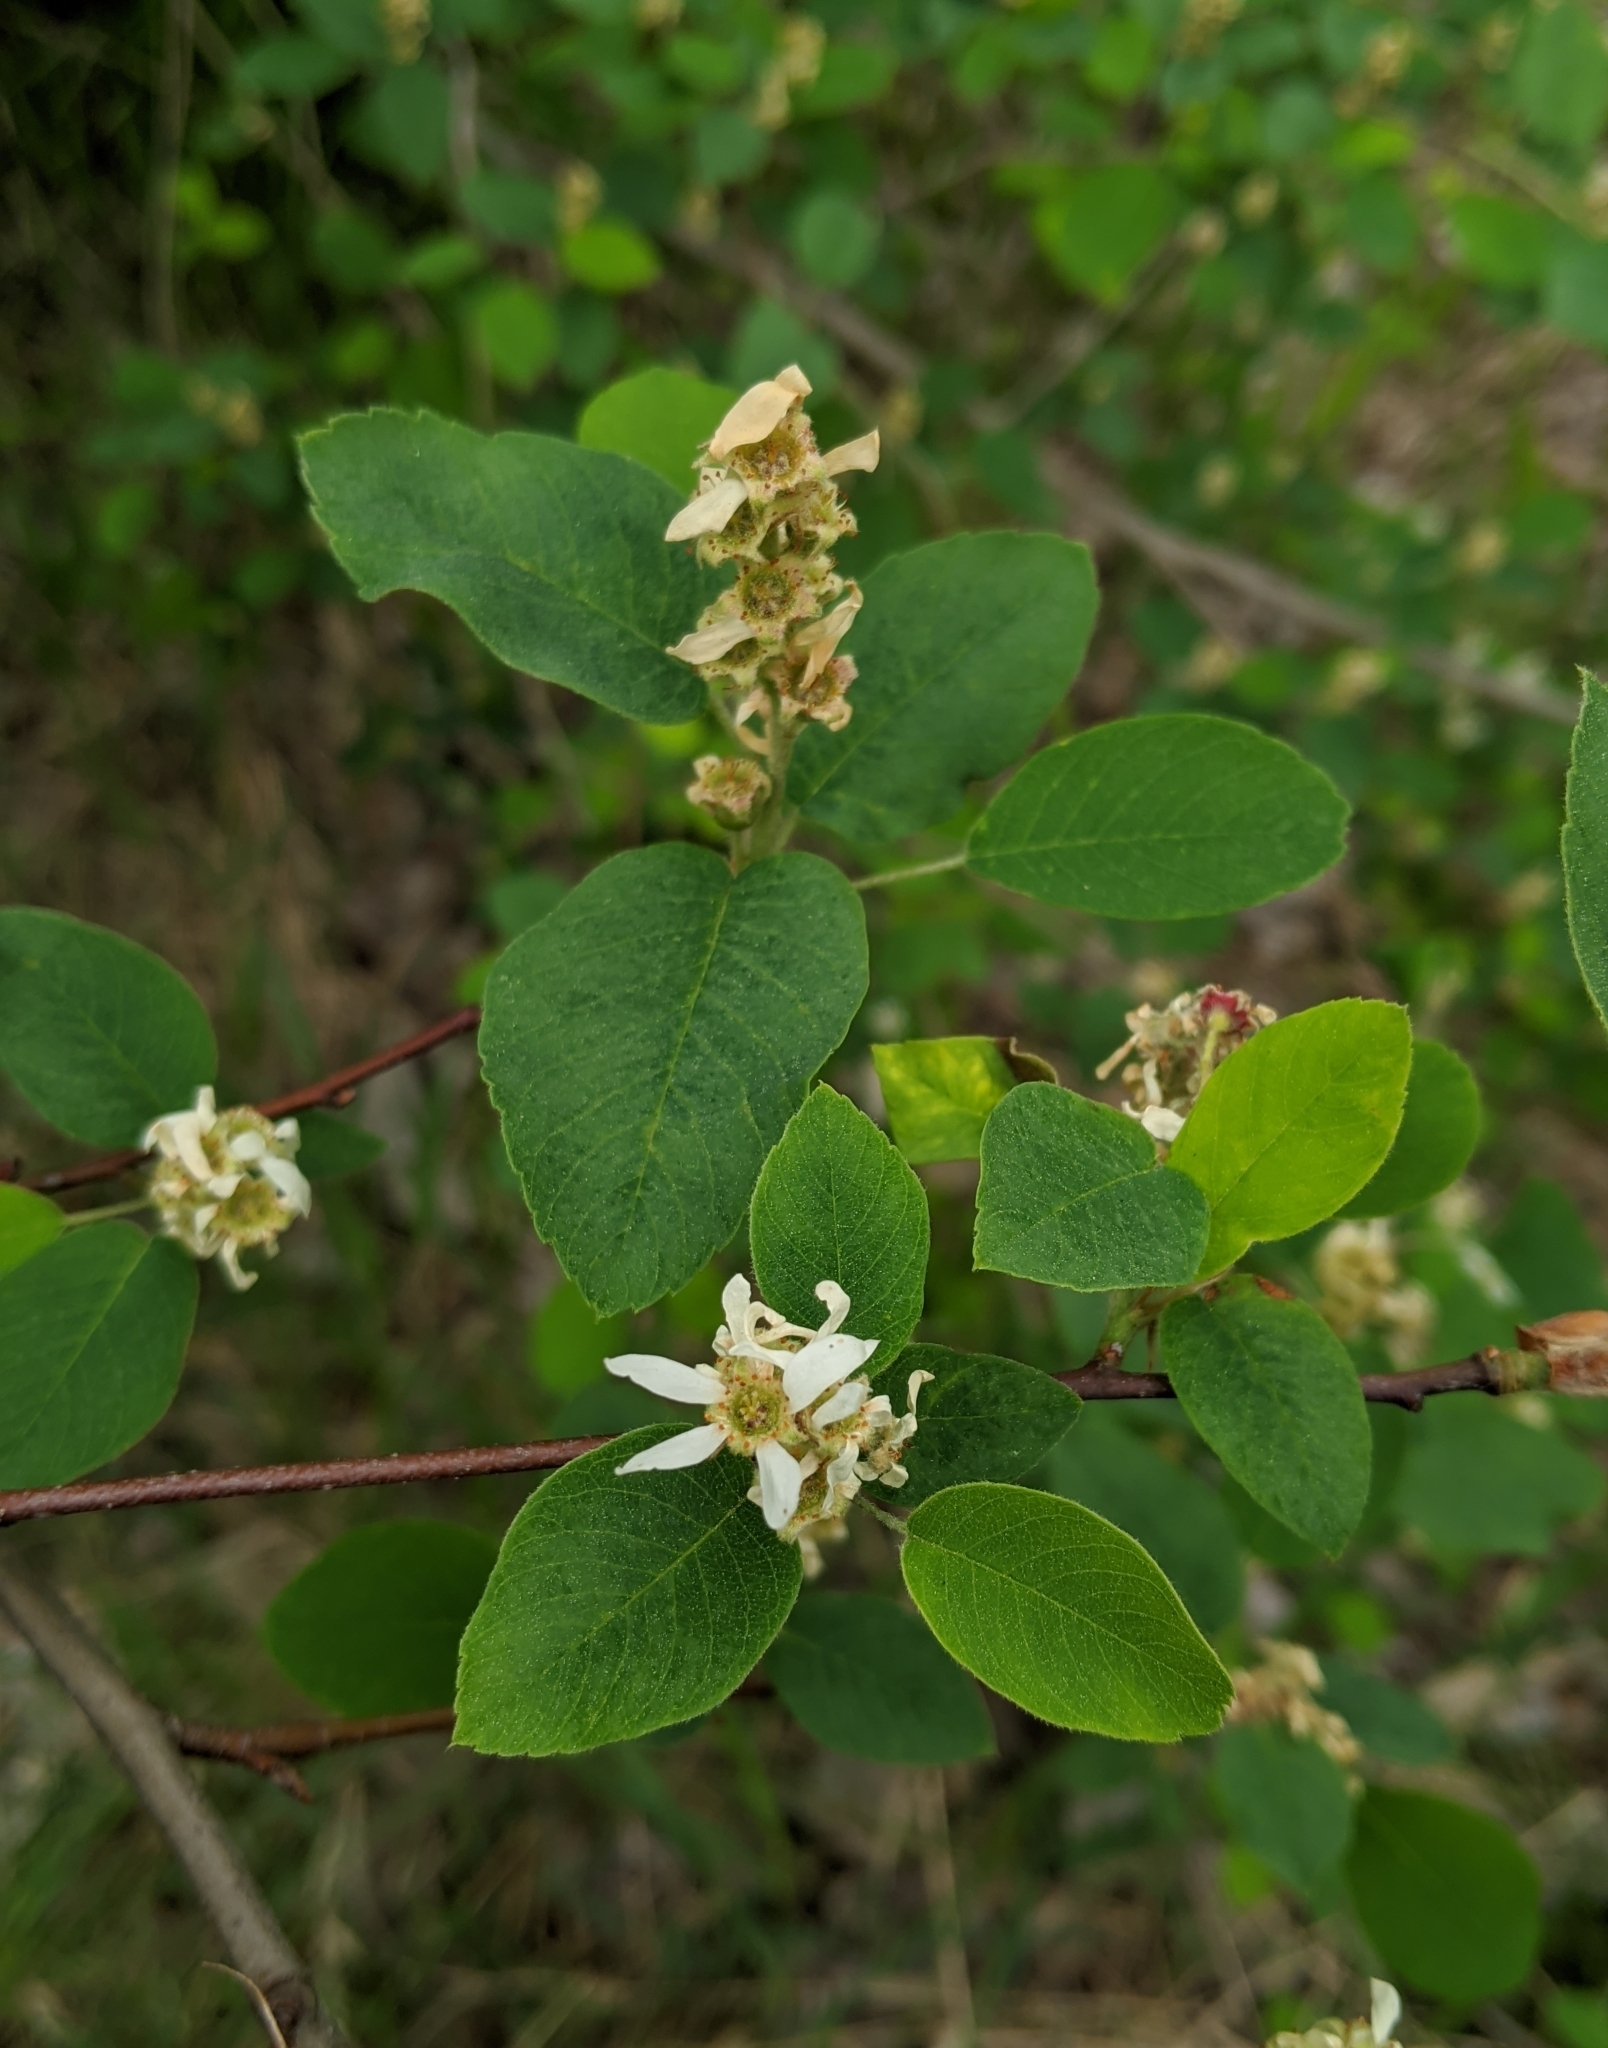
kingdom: Plantae
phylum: Tracheophyta
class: Magnoliopsida
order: Rosales
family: Rosaceae
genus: Amelanchier
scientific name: Amelanchier alnifolia
